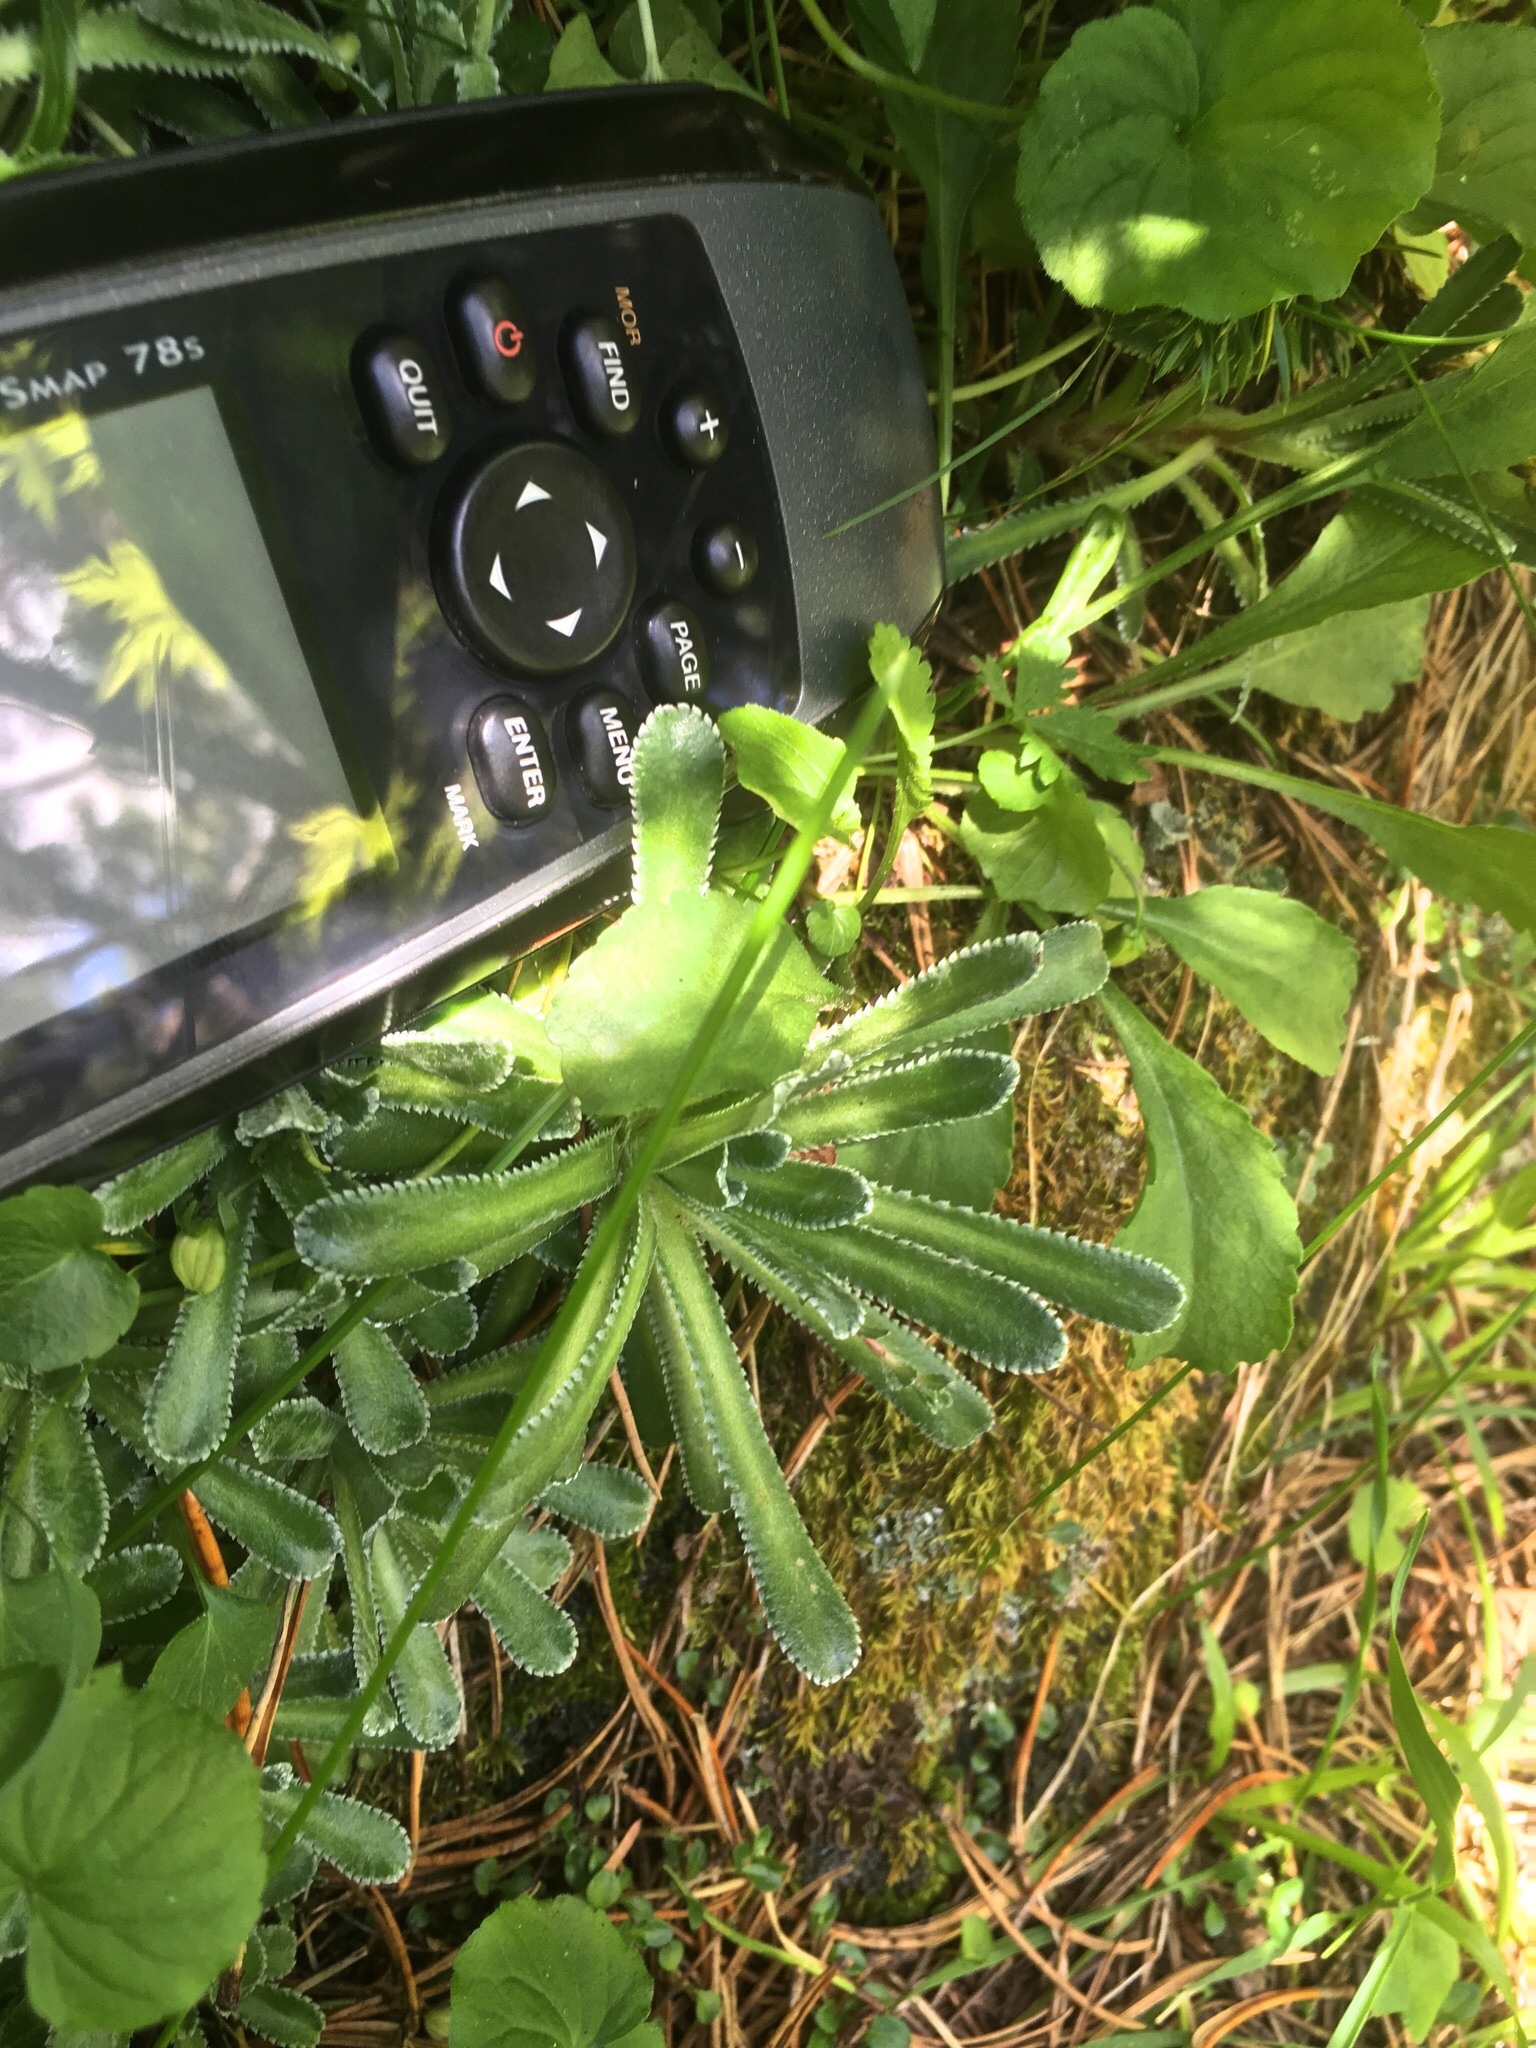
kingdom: Plantae
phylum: Tracheophyta
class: Magnoliopsida
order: Saxifragales
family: Saxifragaceae
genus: Saxifraga
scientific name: Saxifraga hostii
